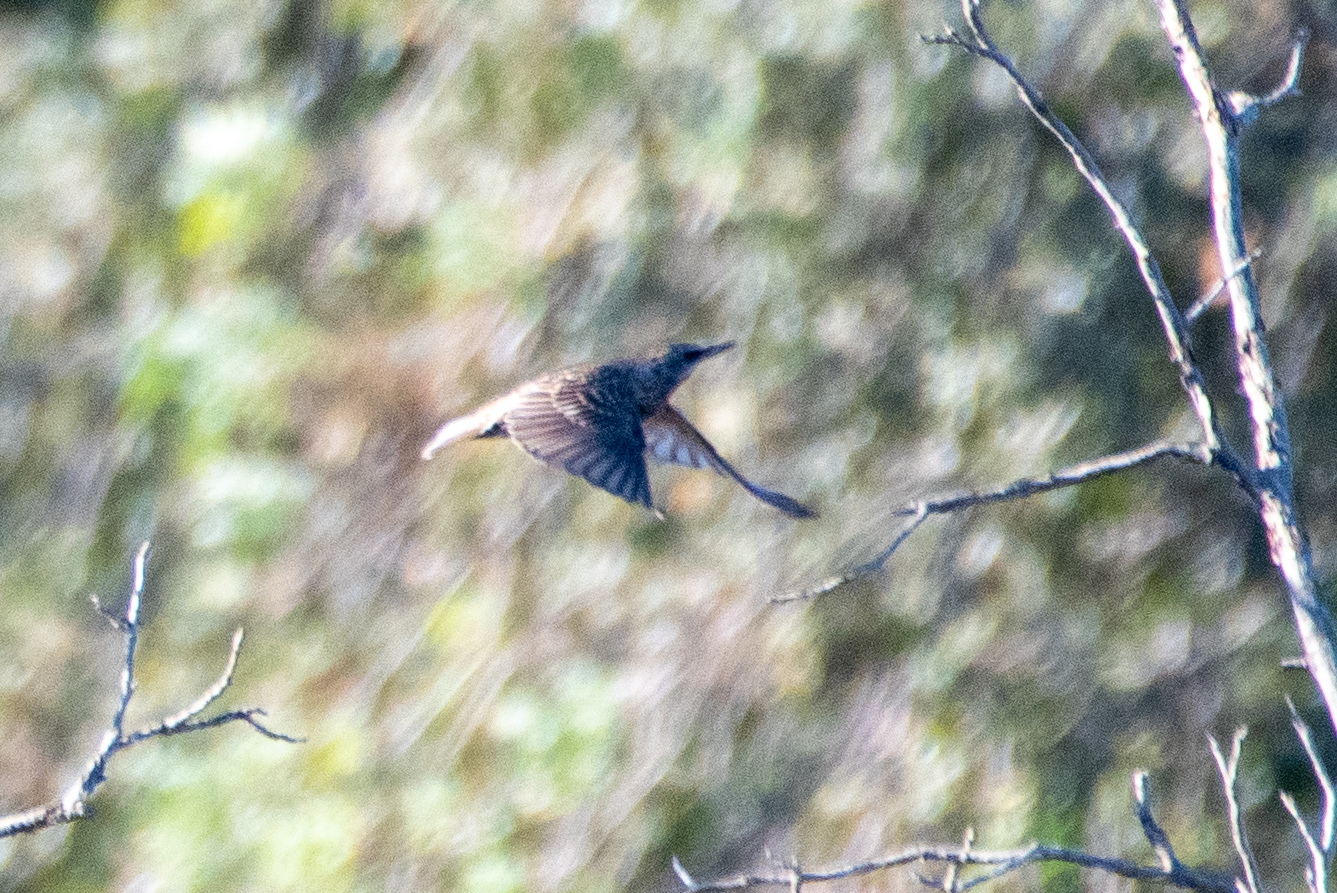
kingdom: Animalia
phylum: Chordata
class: Aves
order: Passeriformes
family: Sturnidae
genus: Sturnus
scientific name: Sturnus vulgaris
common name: Common starling
